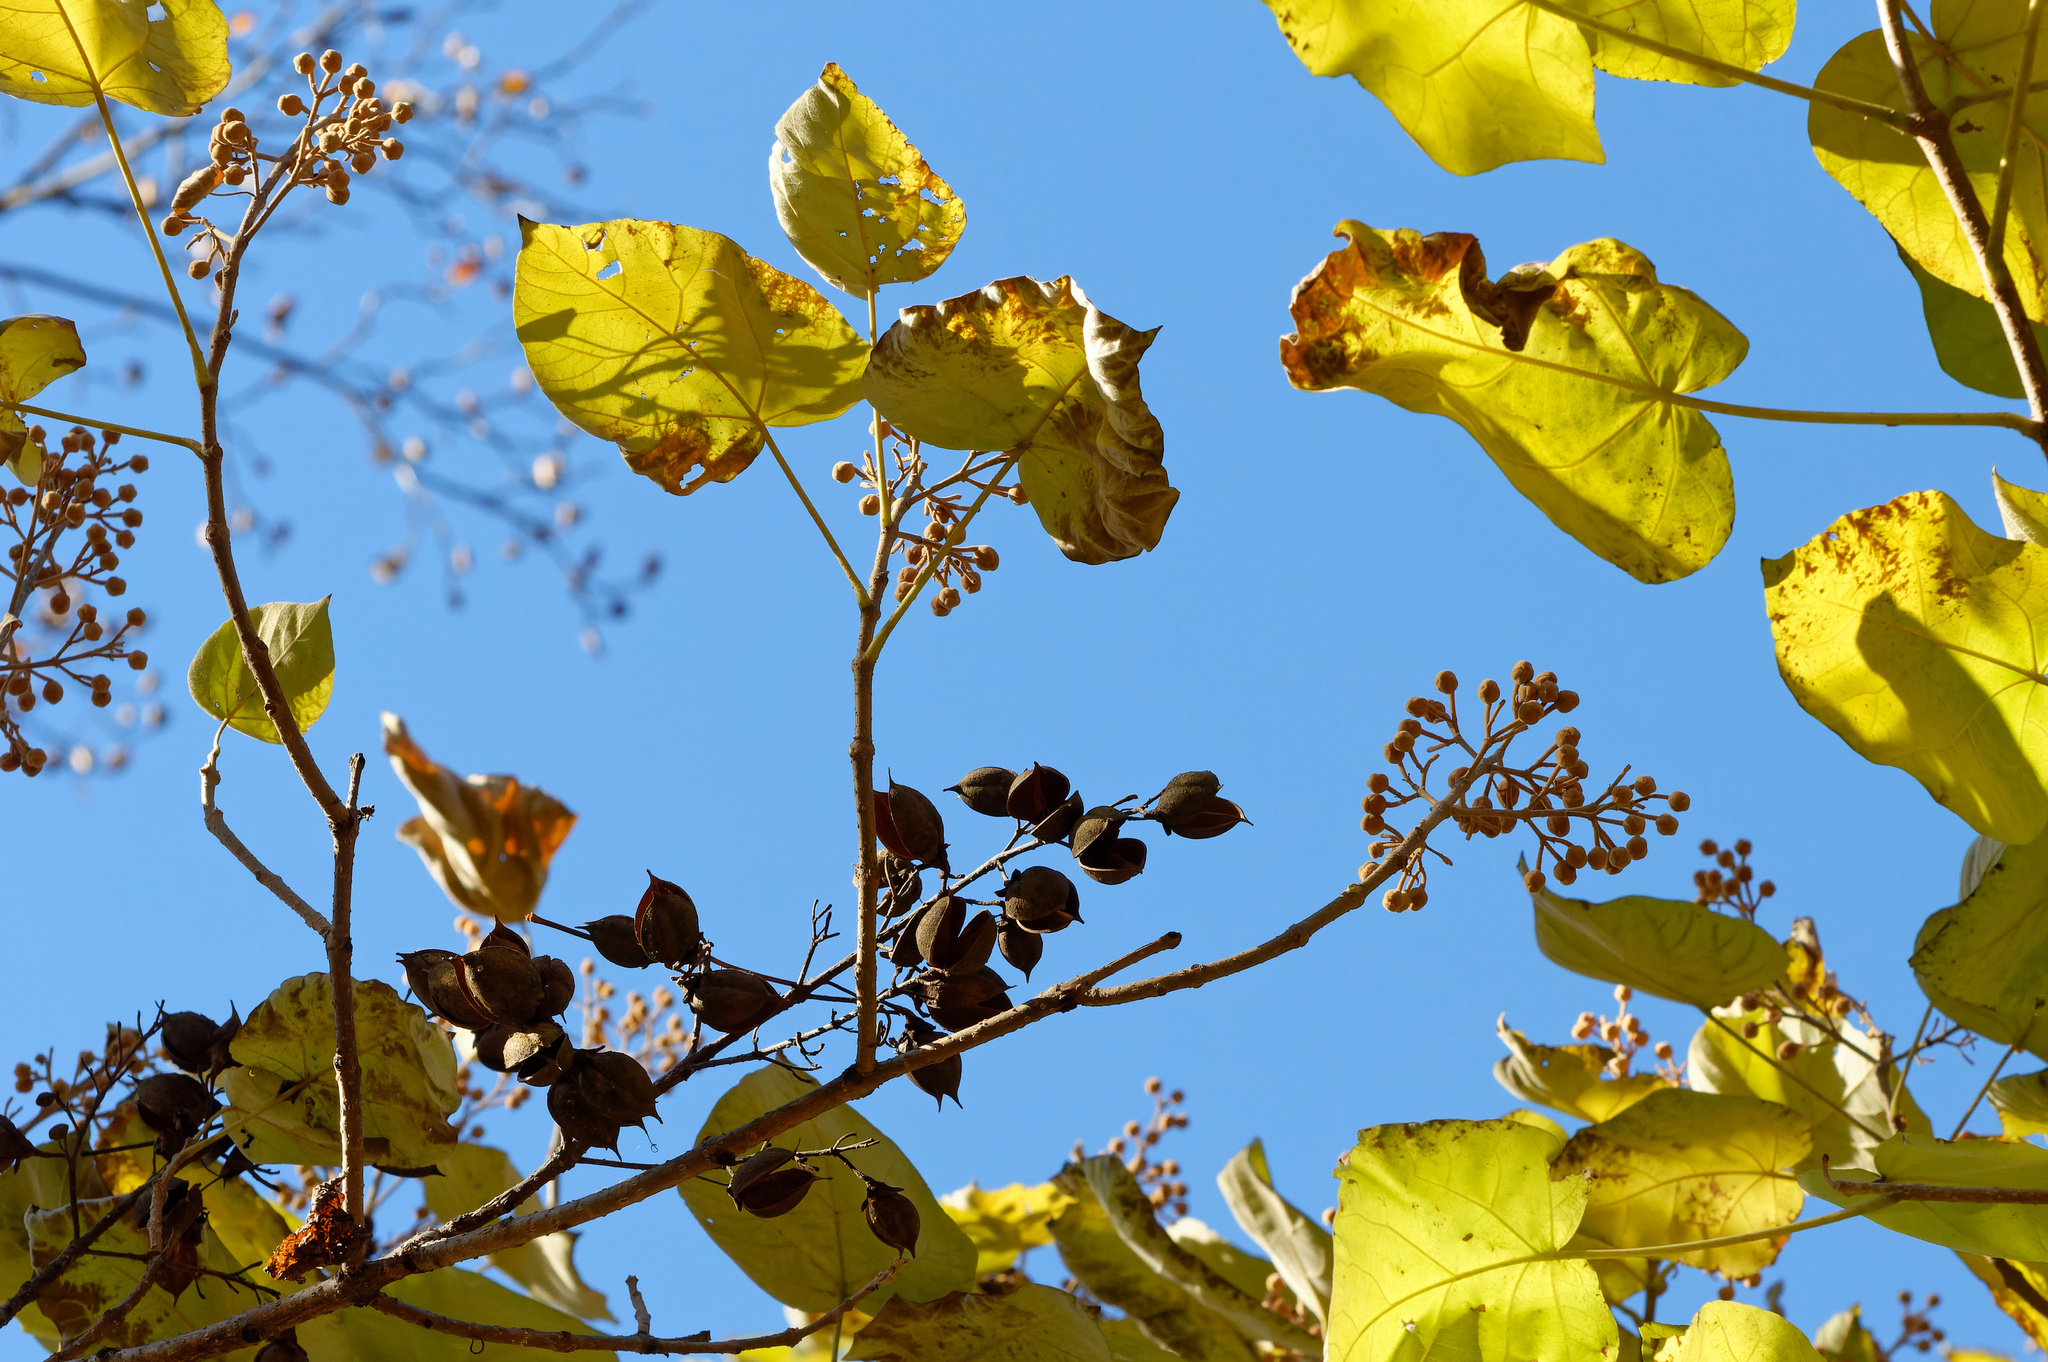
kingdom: Plantae
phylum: Tracheophyta
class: Magnoliopsida
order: Lamiales
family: Paulowniaceae
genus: Paulownia
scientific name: Paulownia tomentosa
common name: Foxglove-tree
